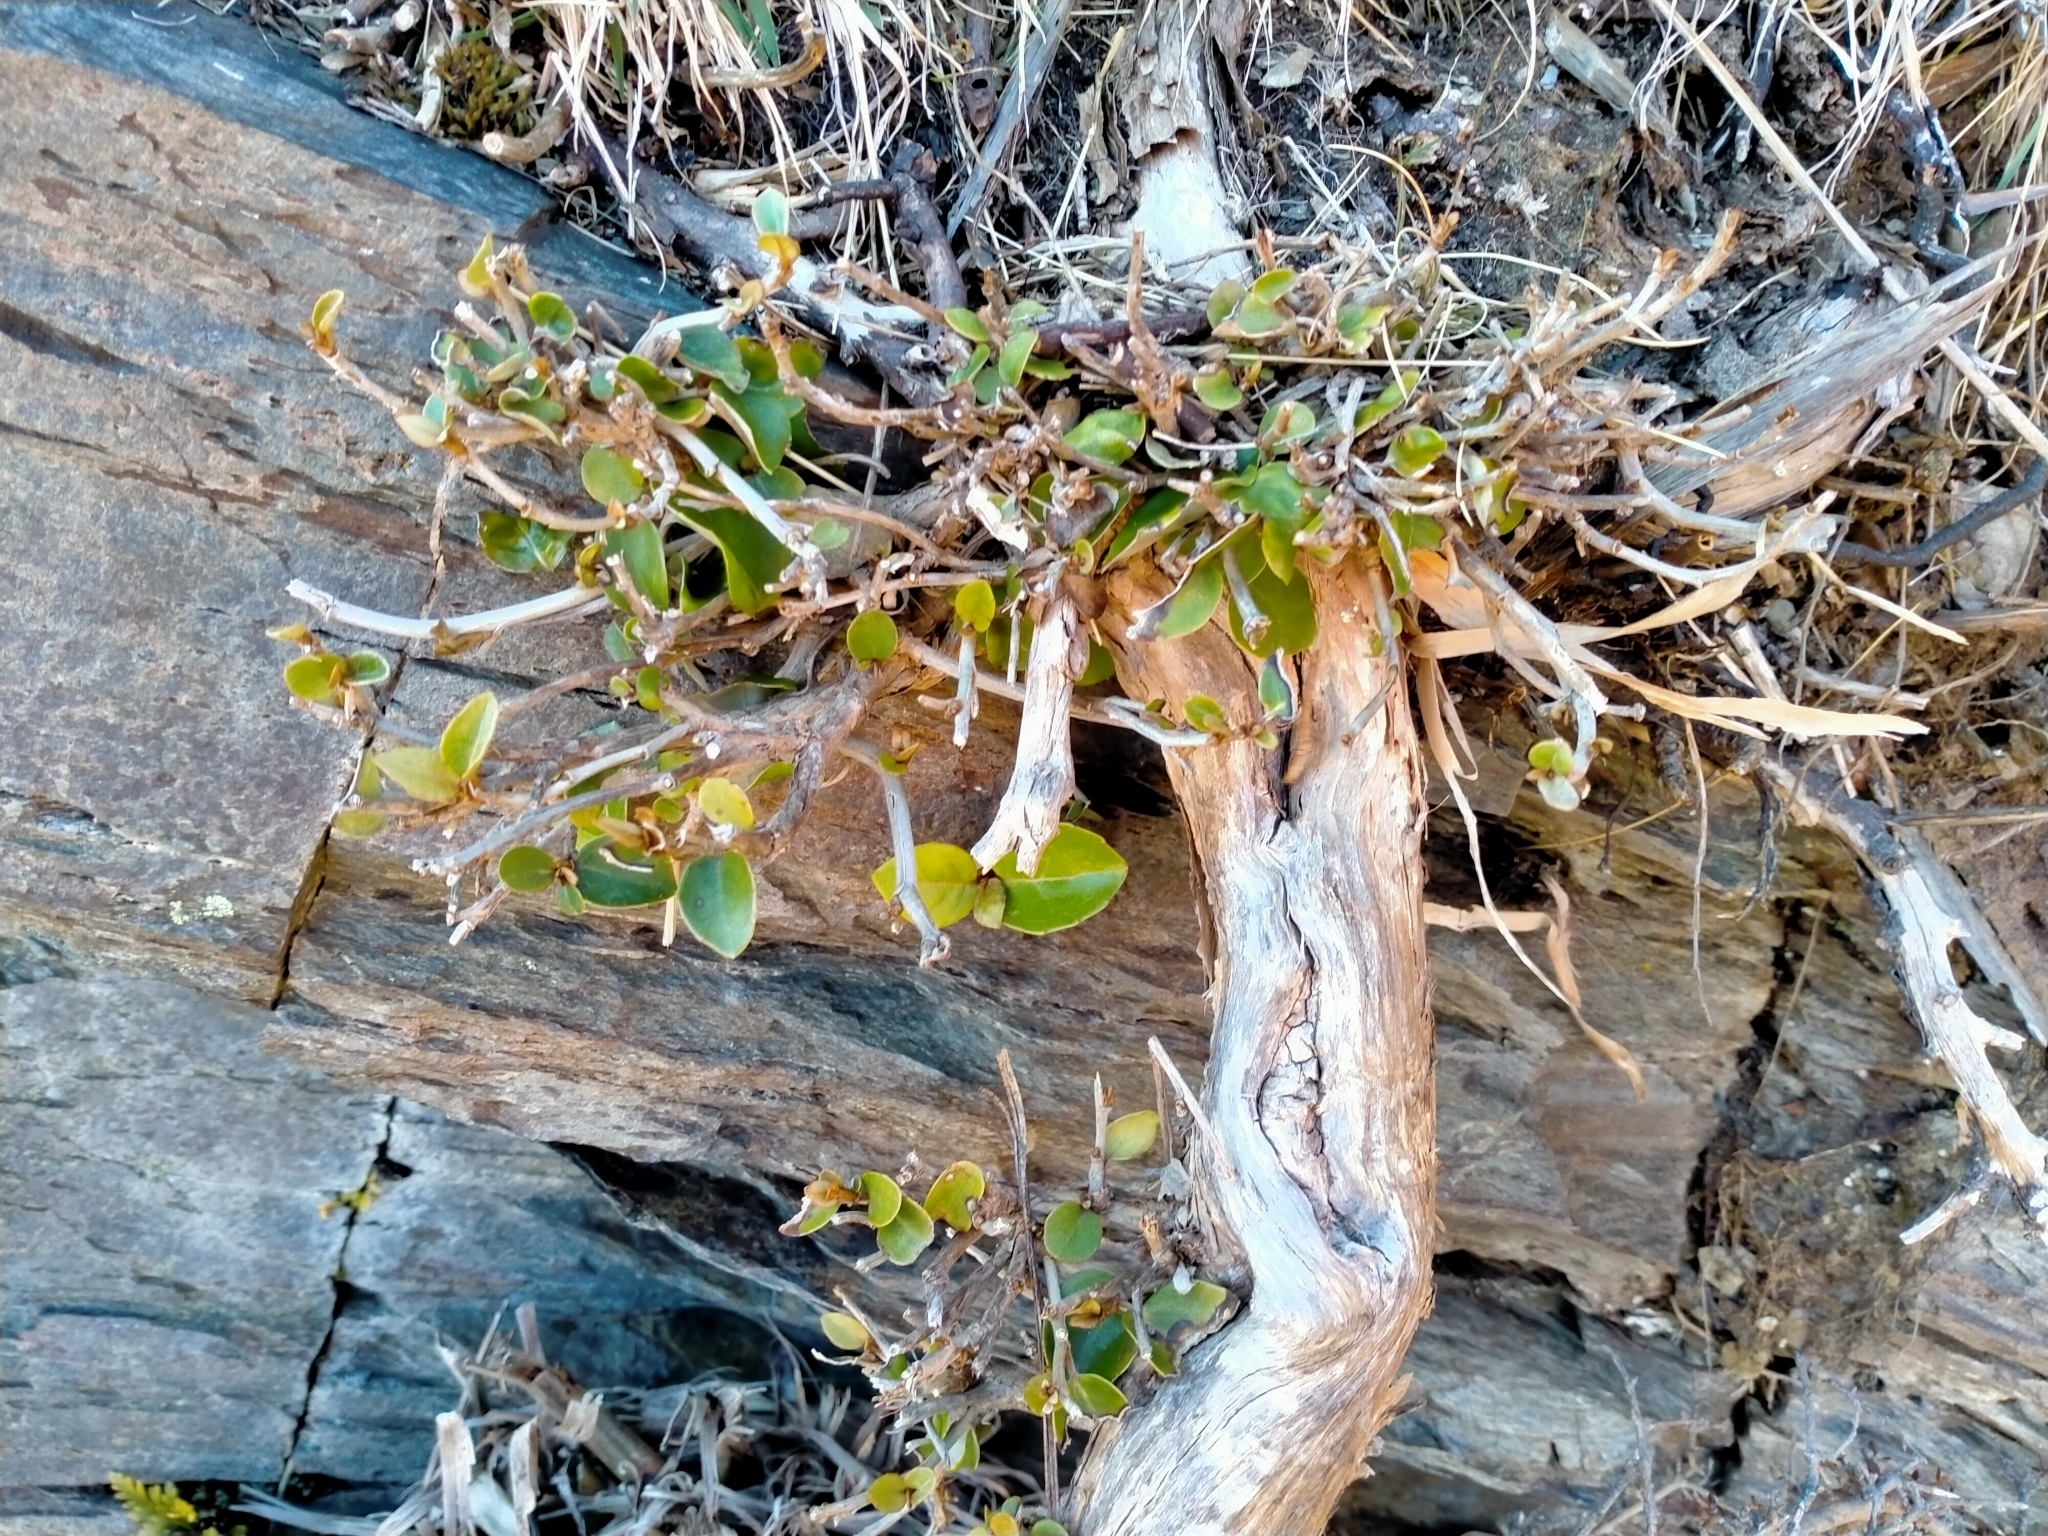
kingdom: Plantae
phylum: Tracheophyta
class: Magnoliopsida
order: Asterales
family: Asteraceae
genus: Olearia
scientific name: Olearia arborescens
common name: Glossy tree daisy
